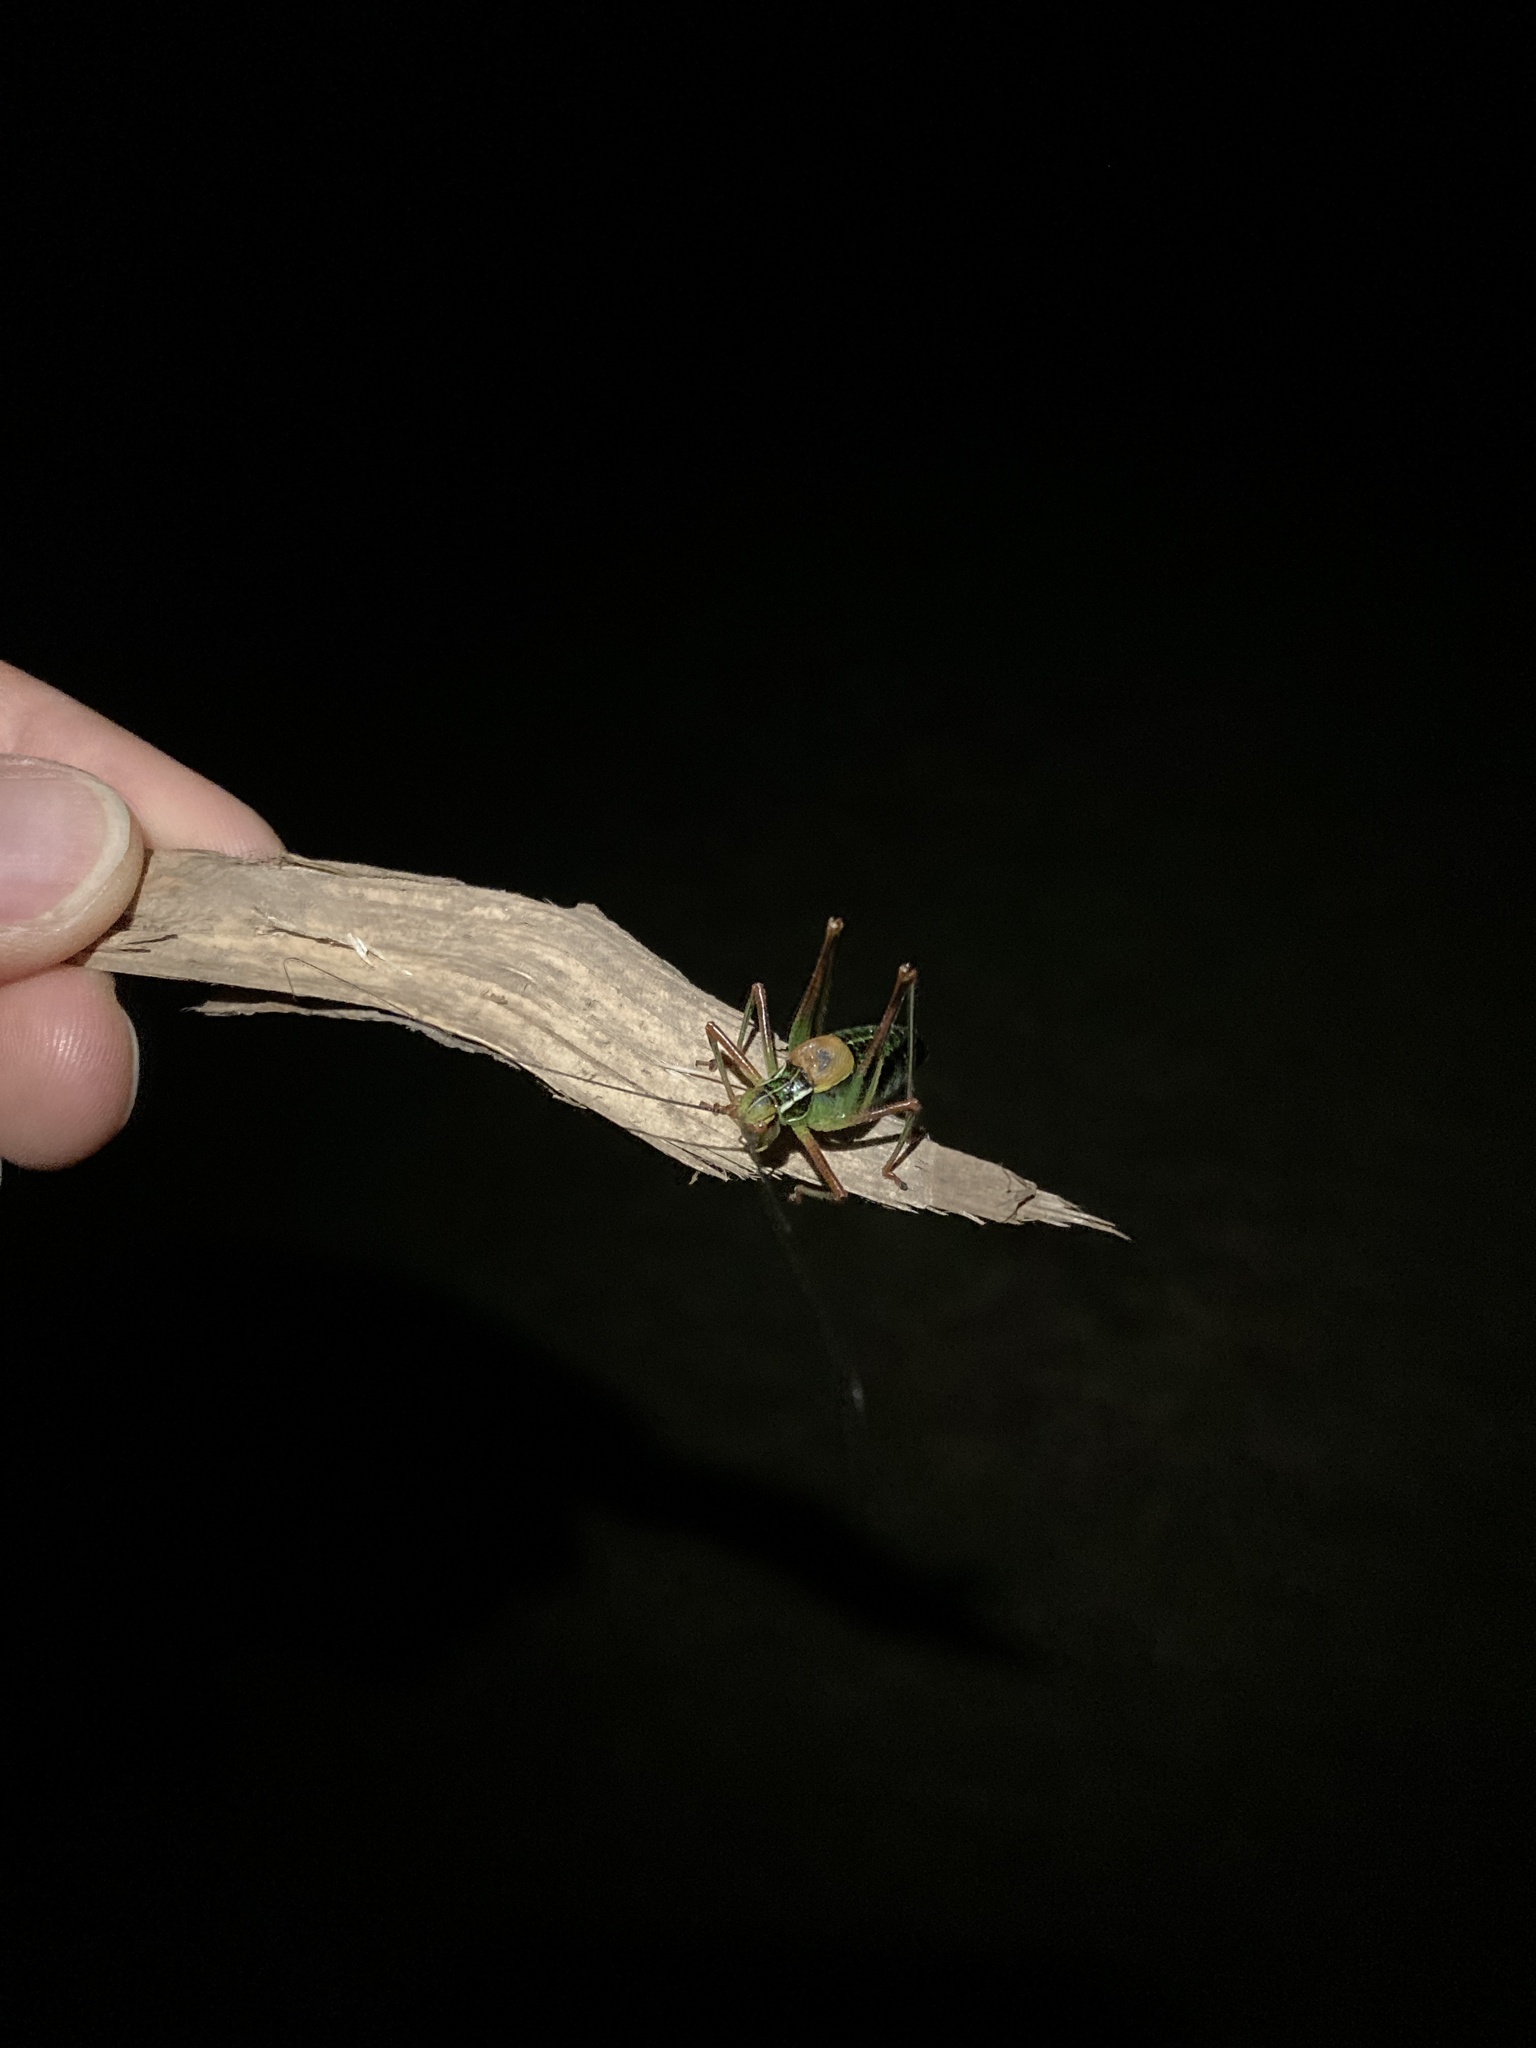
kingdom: Animalia
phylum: Arthropoda
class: Insecta
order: Orthoptera
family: Tettigoniidae
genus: Barbitistes
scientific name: Barbitistes constrictus
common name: Eastern saw-tailed bush cricket
